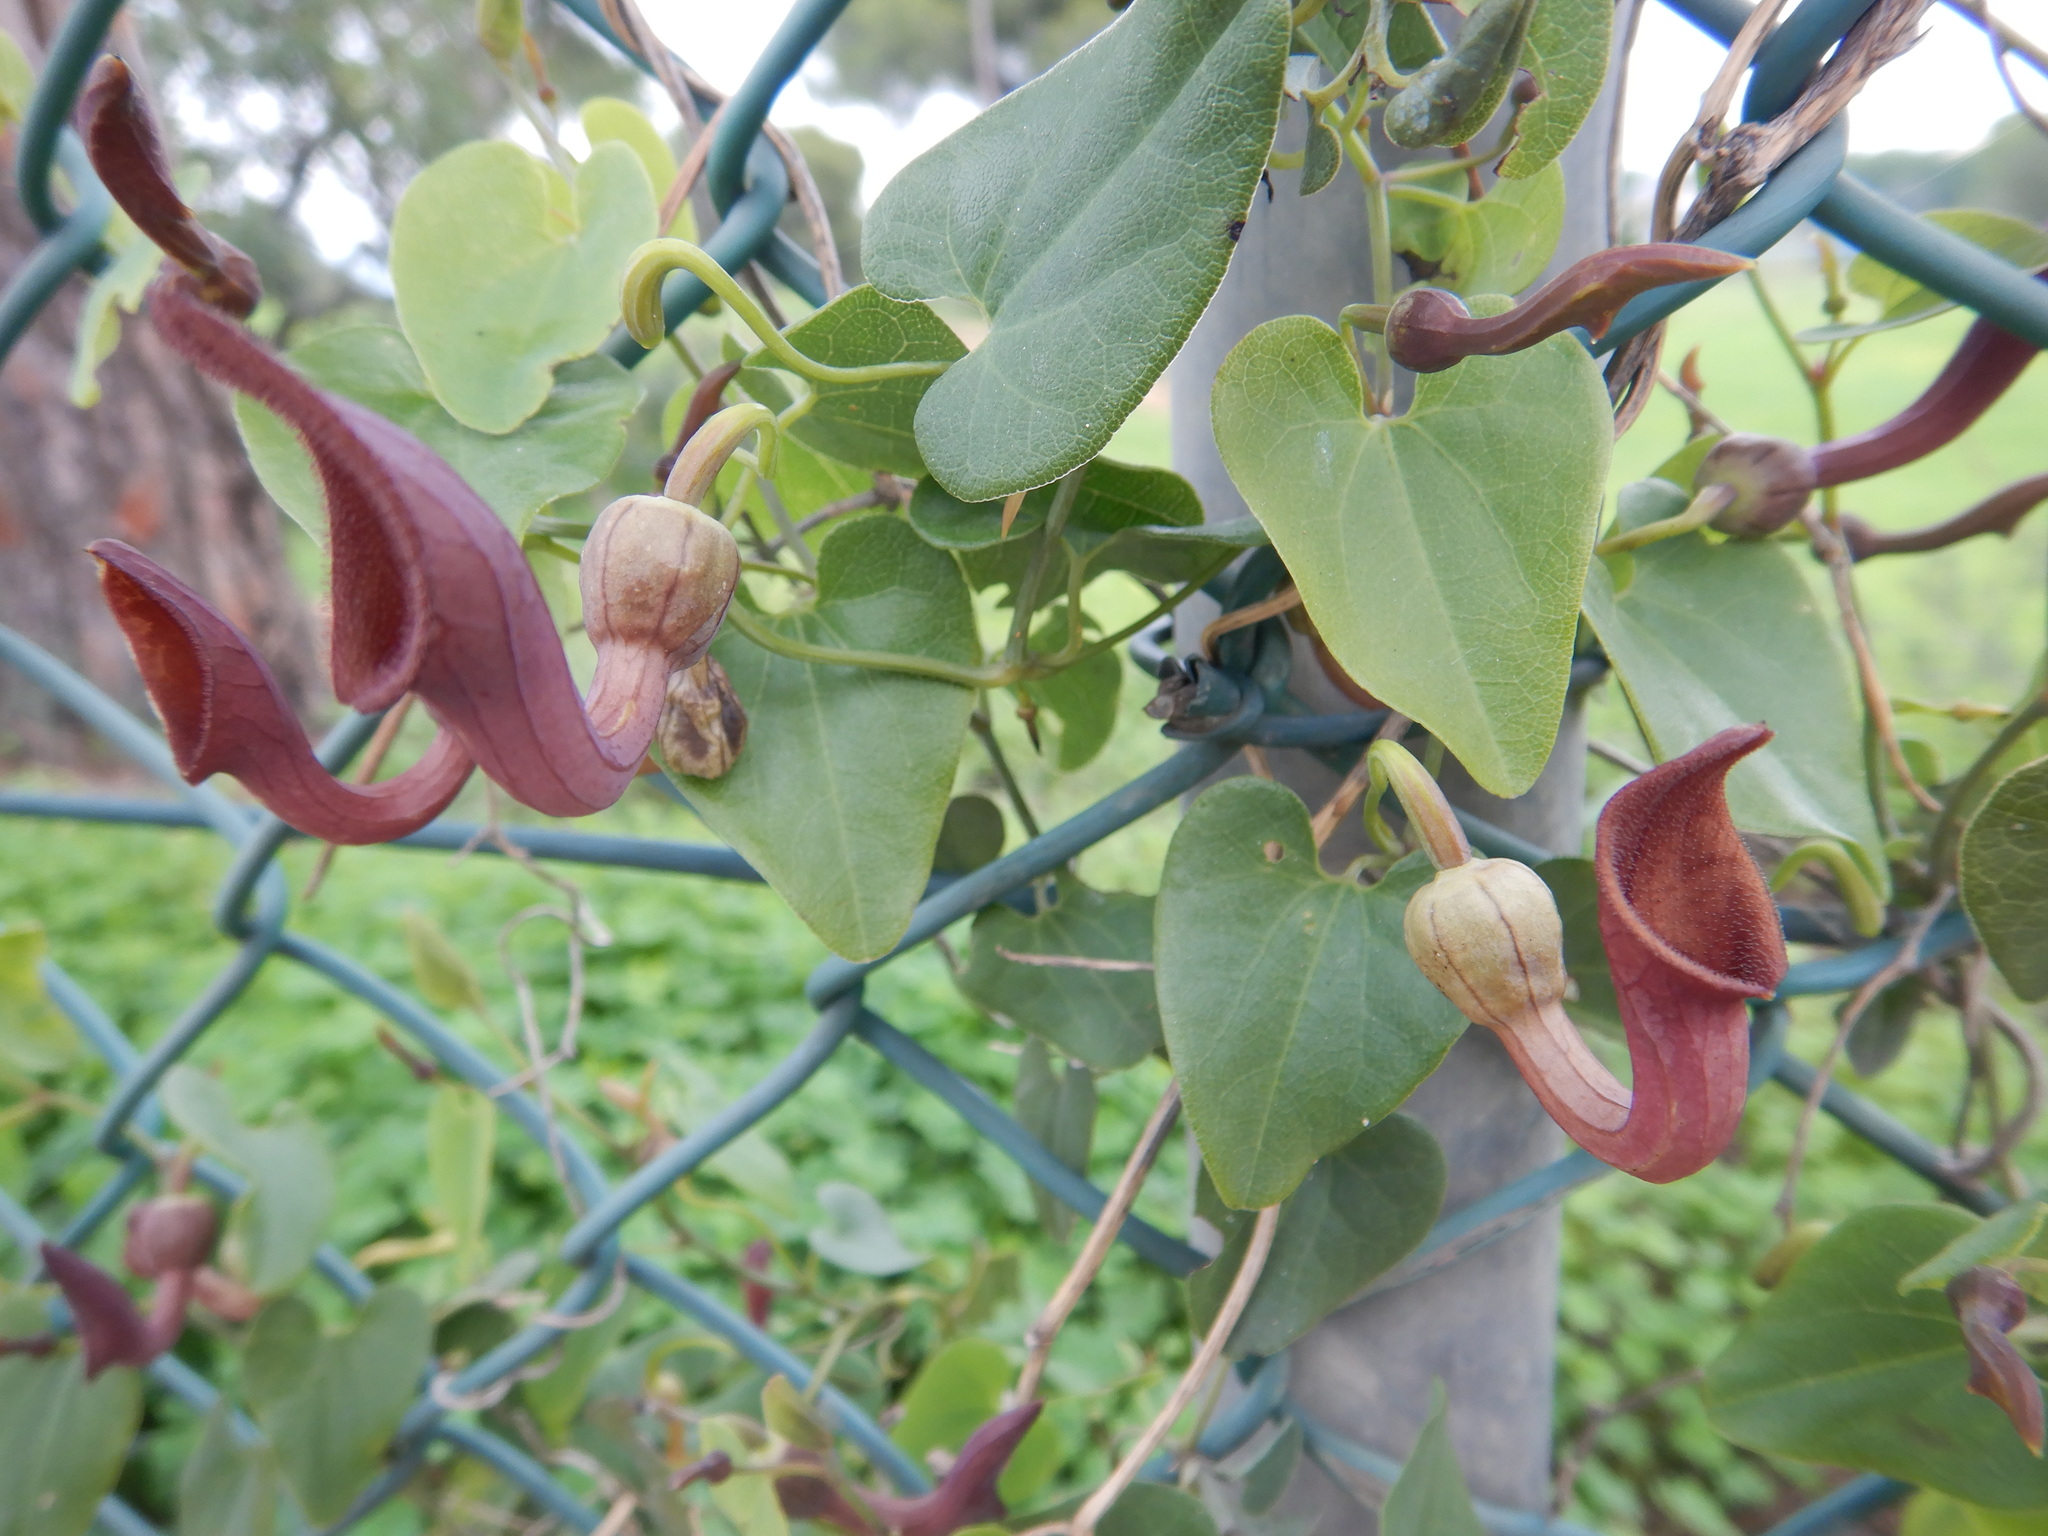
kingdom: Plantae
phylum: Tracheophyta
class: Magnoliopsida
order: Piperales
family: Aristolochiaceae
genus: Aristolochia
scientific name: Aristolochia baetica
